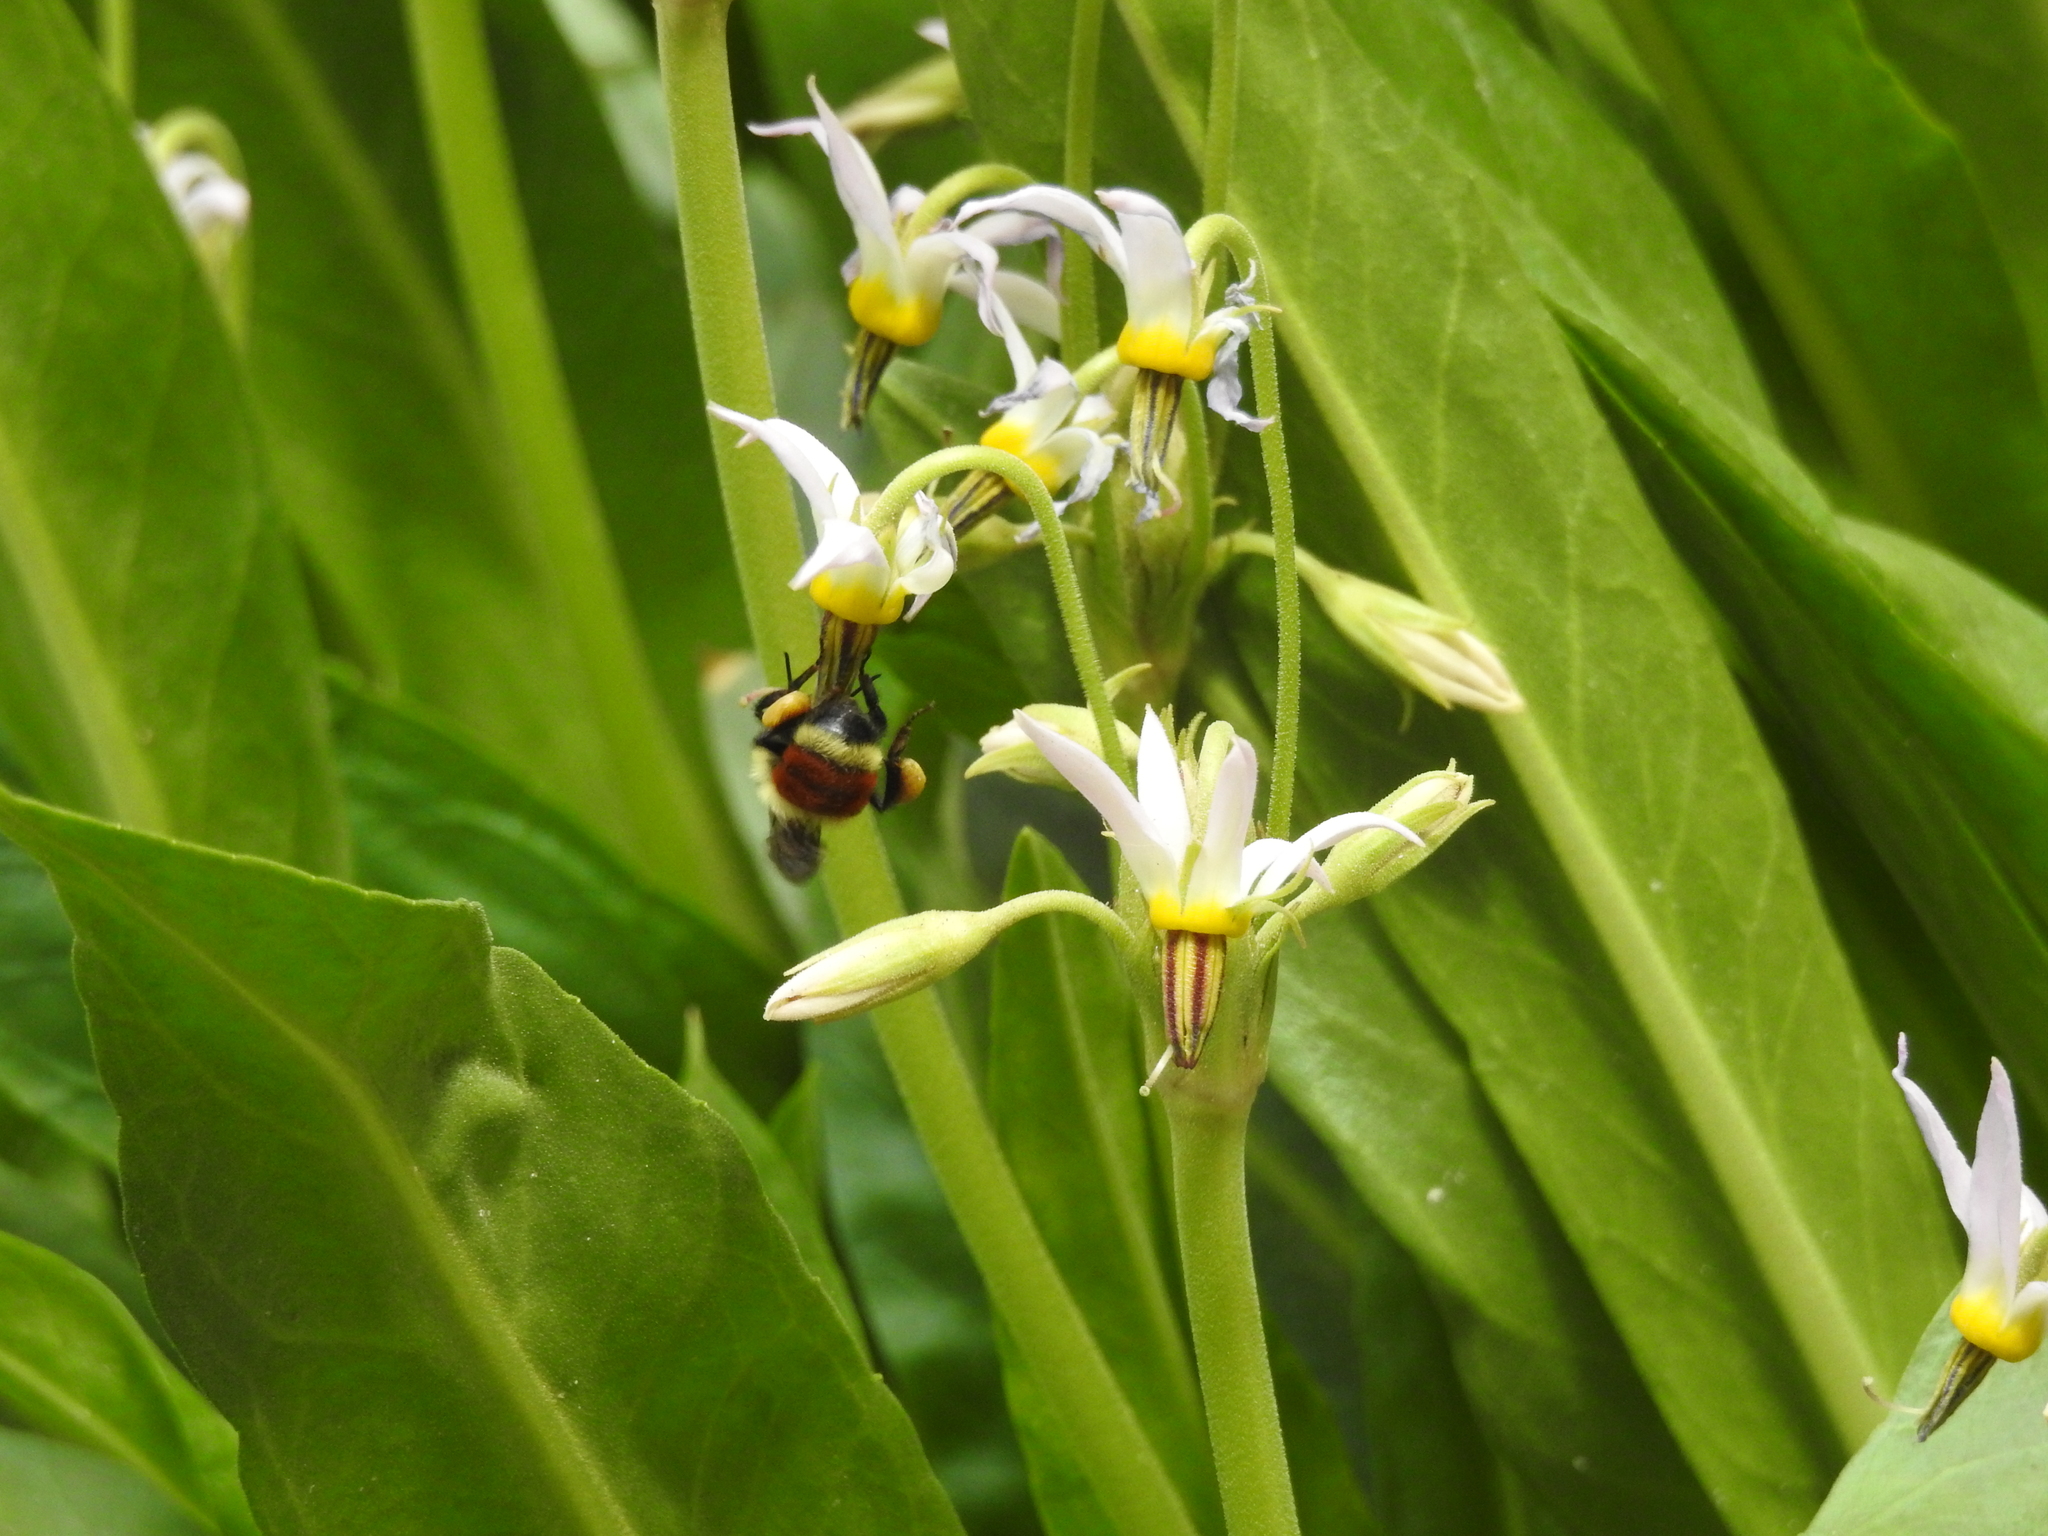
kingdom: Animalia
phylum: Arthropoda
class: Insecta
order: Hymenoptera
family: Apidae
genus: Bombus
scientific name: Bombus huntii
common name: Hunt bumble bee
